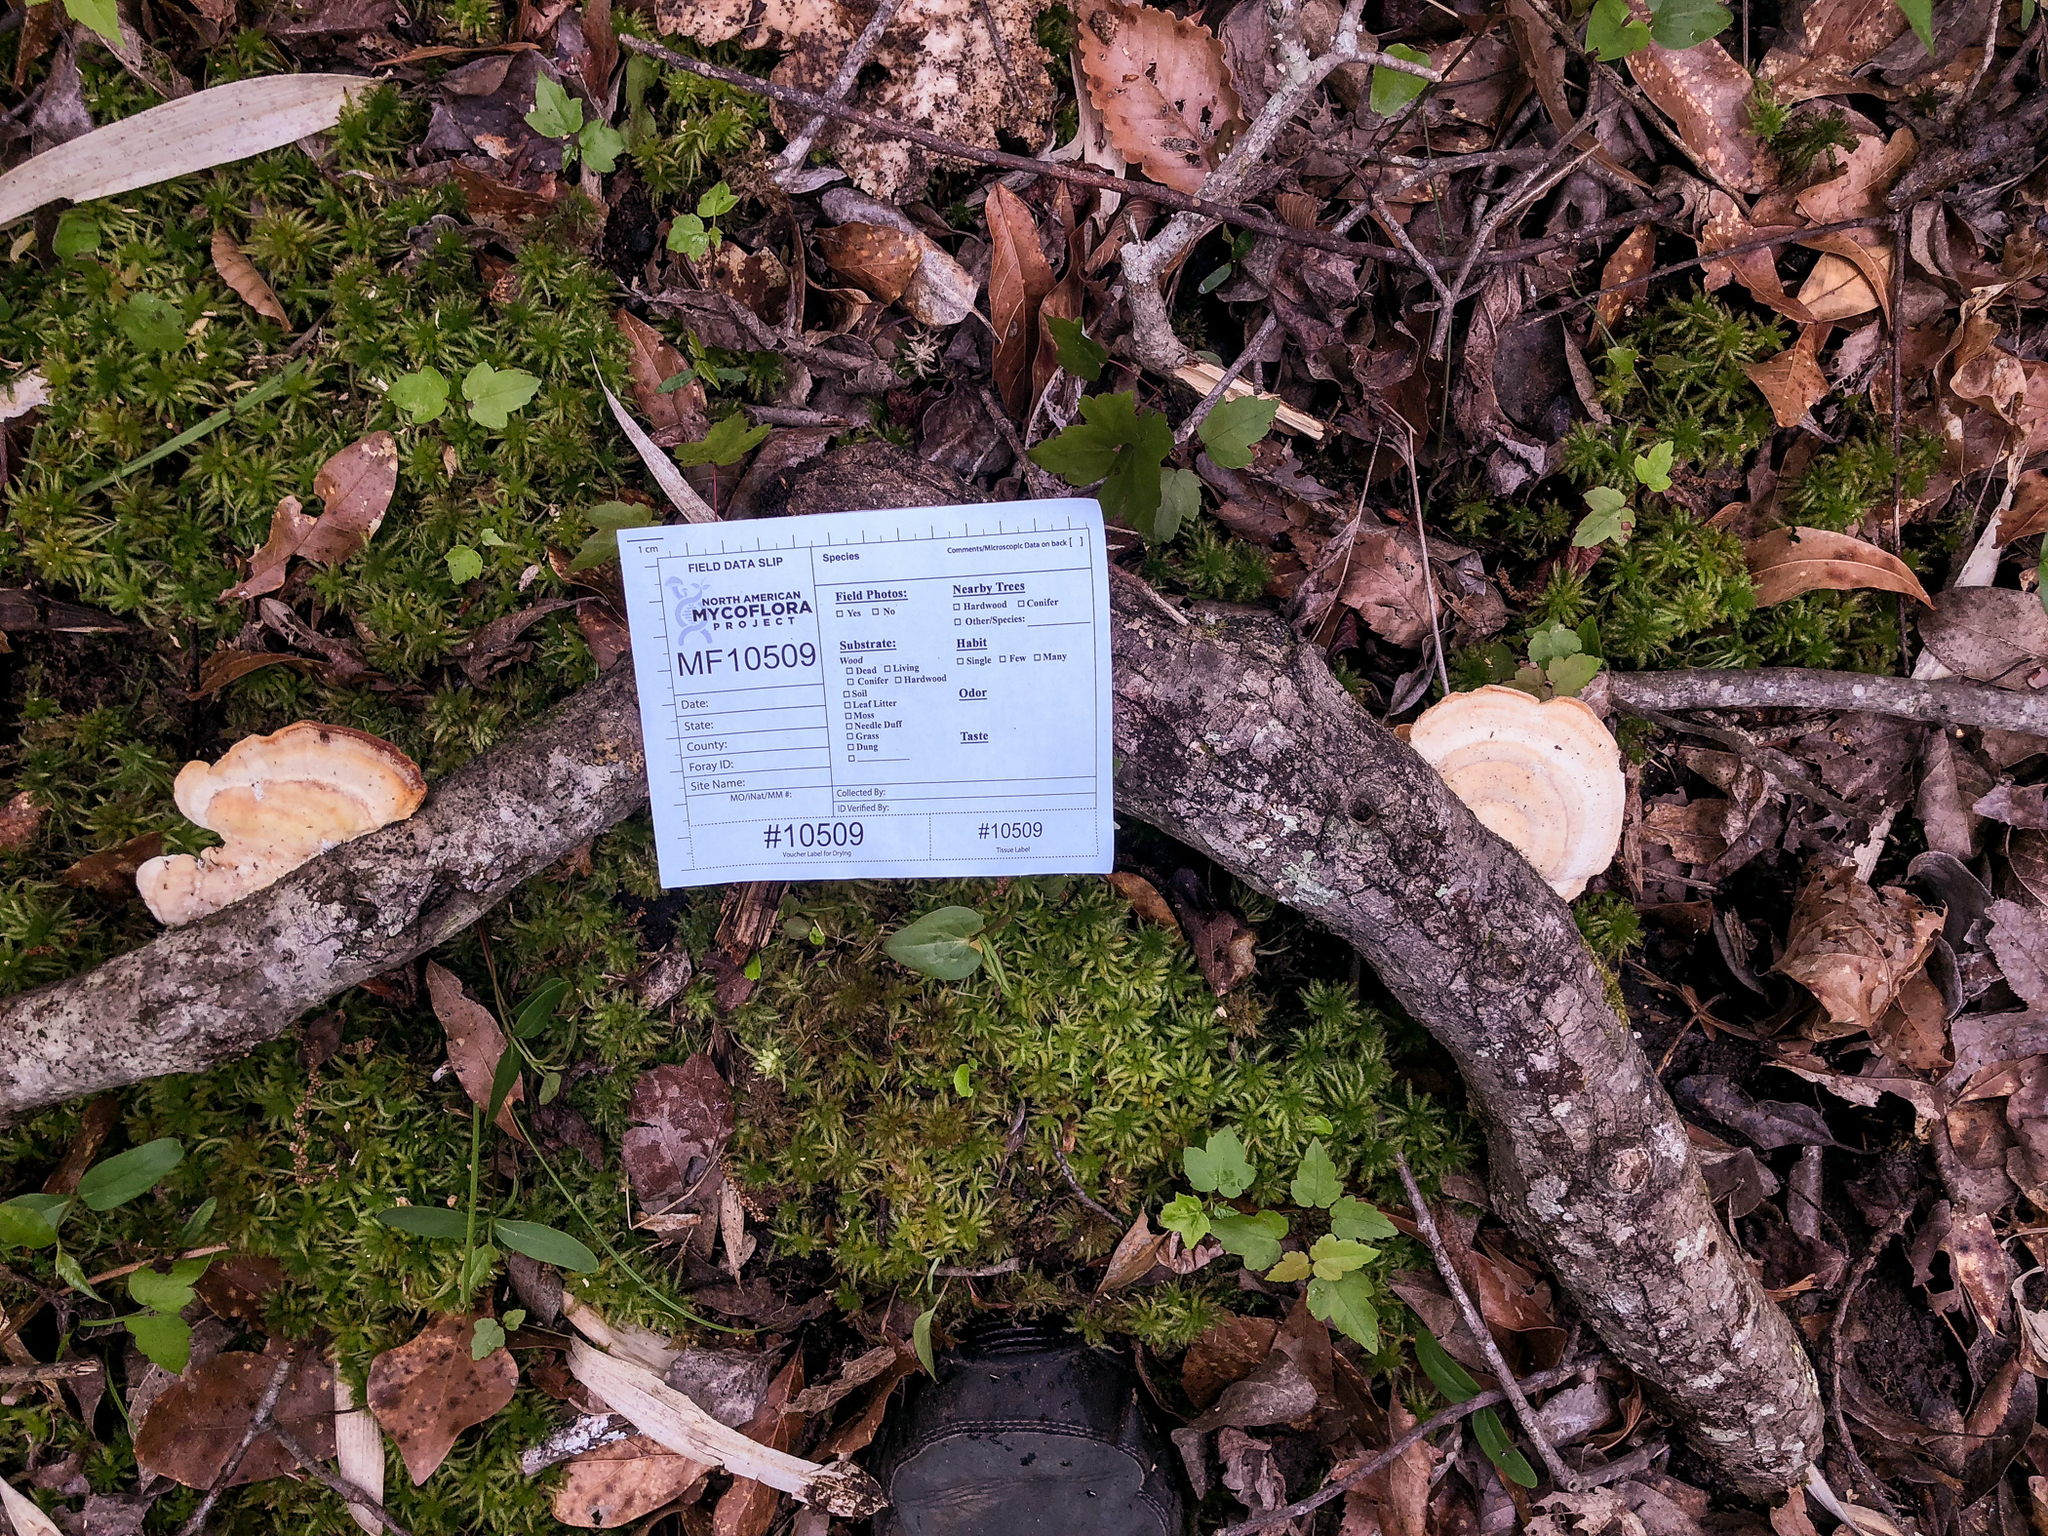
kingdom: Fungi
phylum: Basidiomycota
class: Agaricomycetes
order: Polyporales
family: Polyporaceae
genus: Trametes
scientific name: Trametes lactinea
